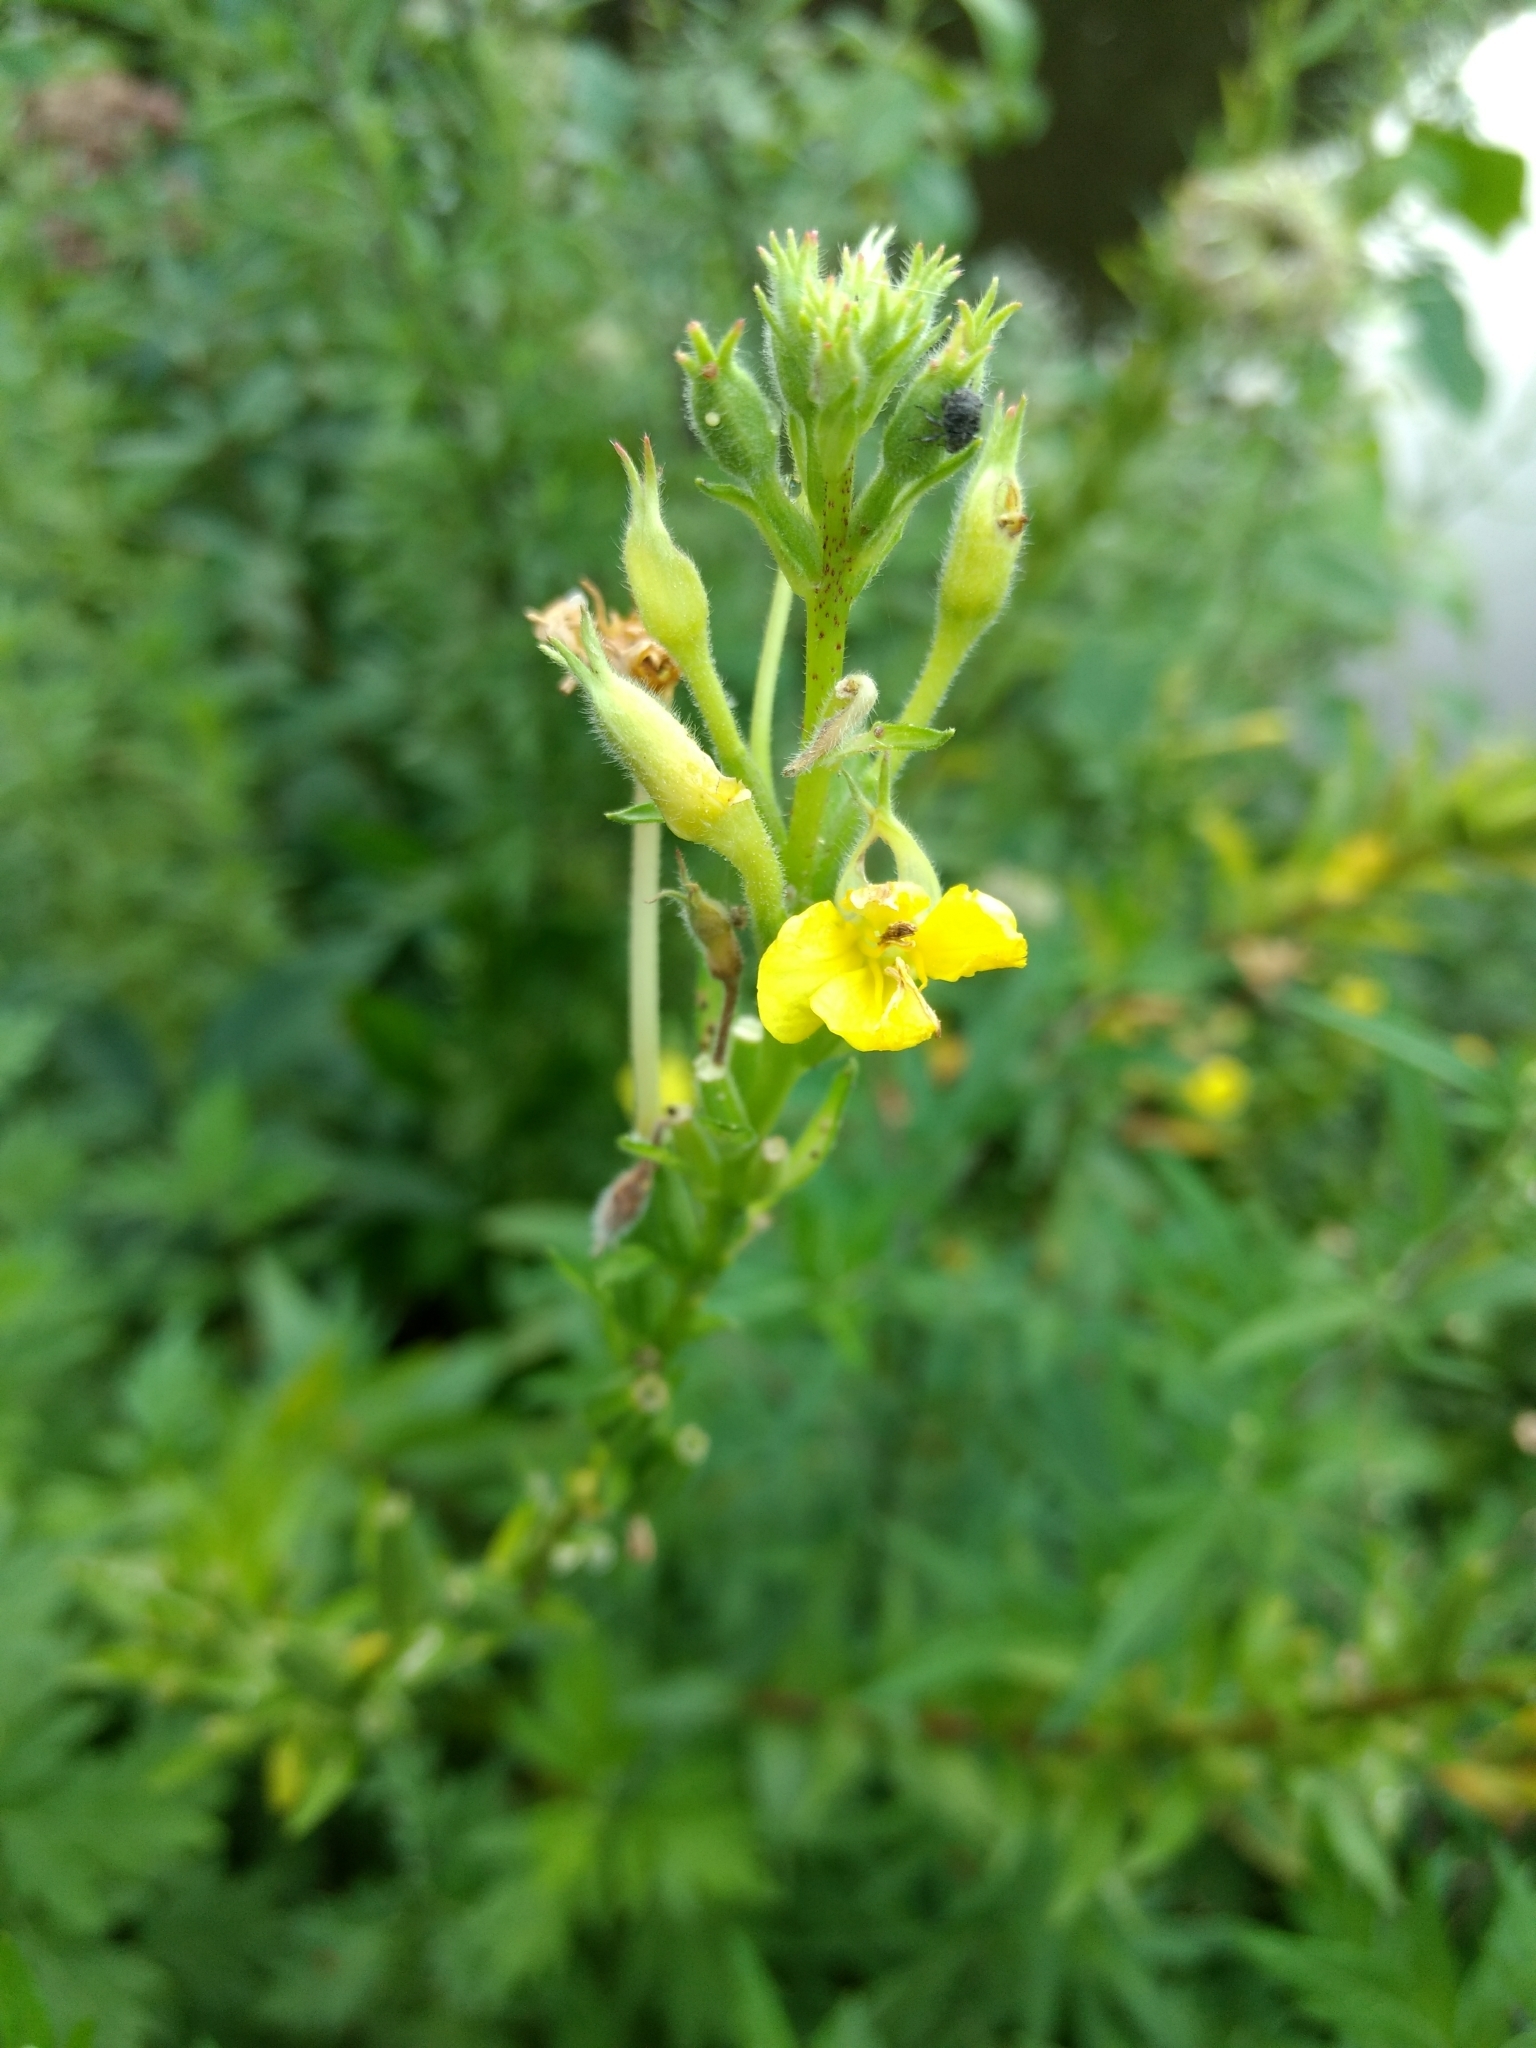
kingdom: Plantae
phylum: Tracheophyta
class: Magnoliopsida
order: Myrtales
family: Onagraceae
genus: Oenothera
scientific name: Oenothera biennis
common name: Common evening-primrose
